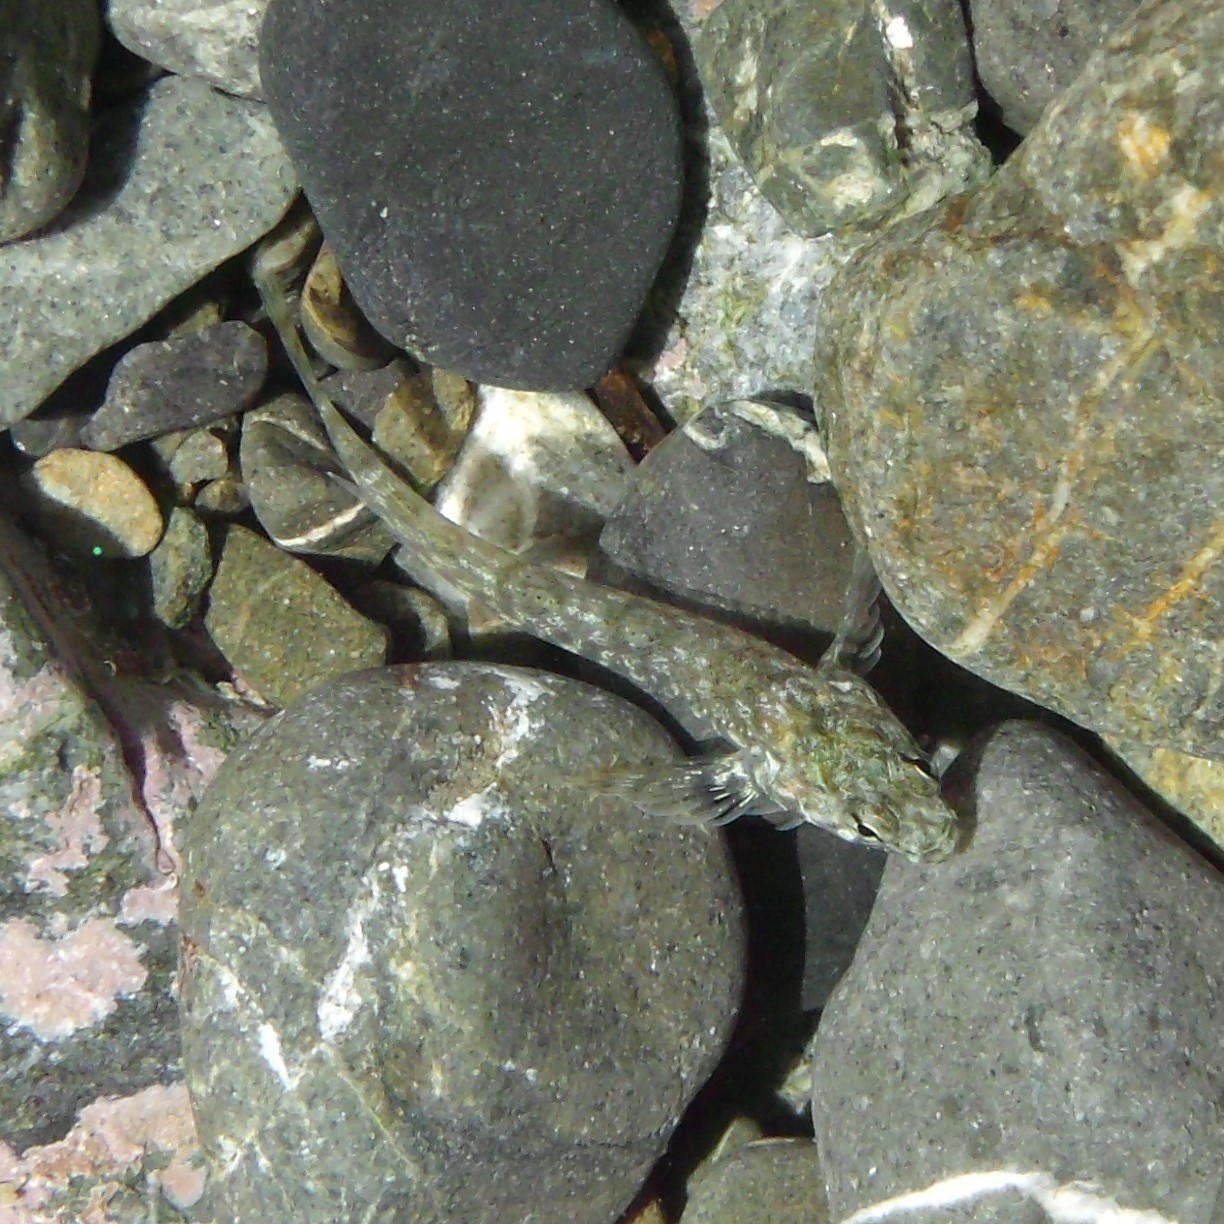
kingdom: Animalia
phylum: Chordata
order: Perciformes
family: Tripterygiidae
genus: Bellapiscis
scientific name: Bellapiscis medius
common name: Twister
